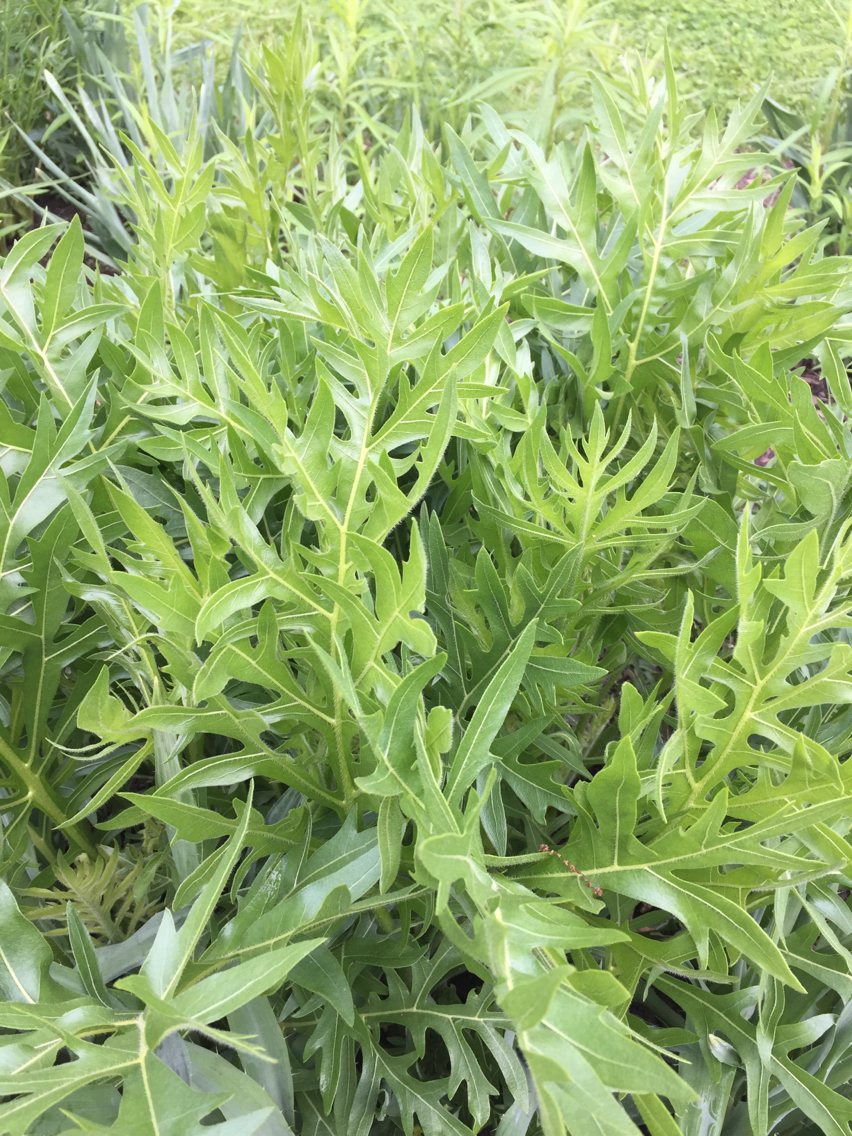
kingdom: Plantae
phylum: Tracheophyta
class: Magnoliopsida
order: Asterales
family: Asteraceae
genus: Silphium
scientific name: Silphium laciniatum
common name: Polarplant
